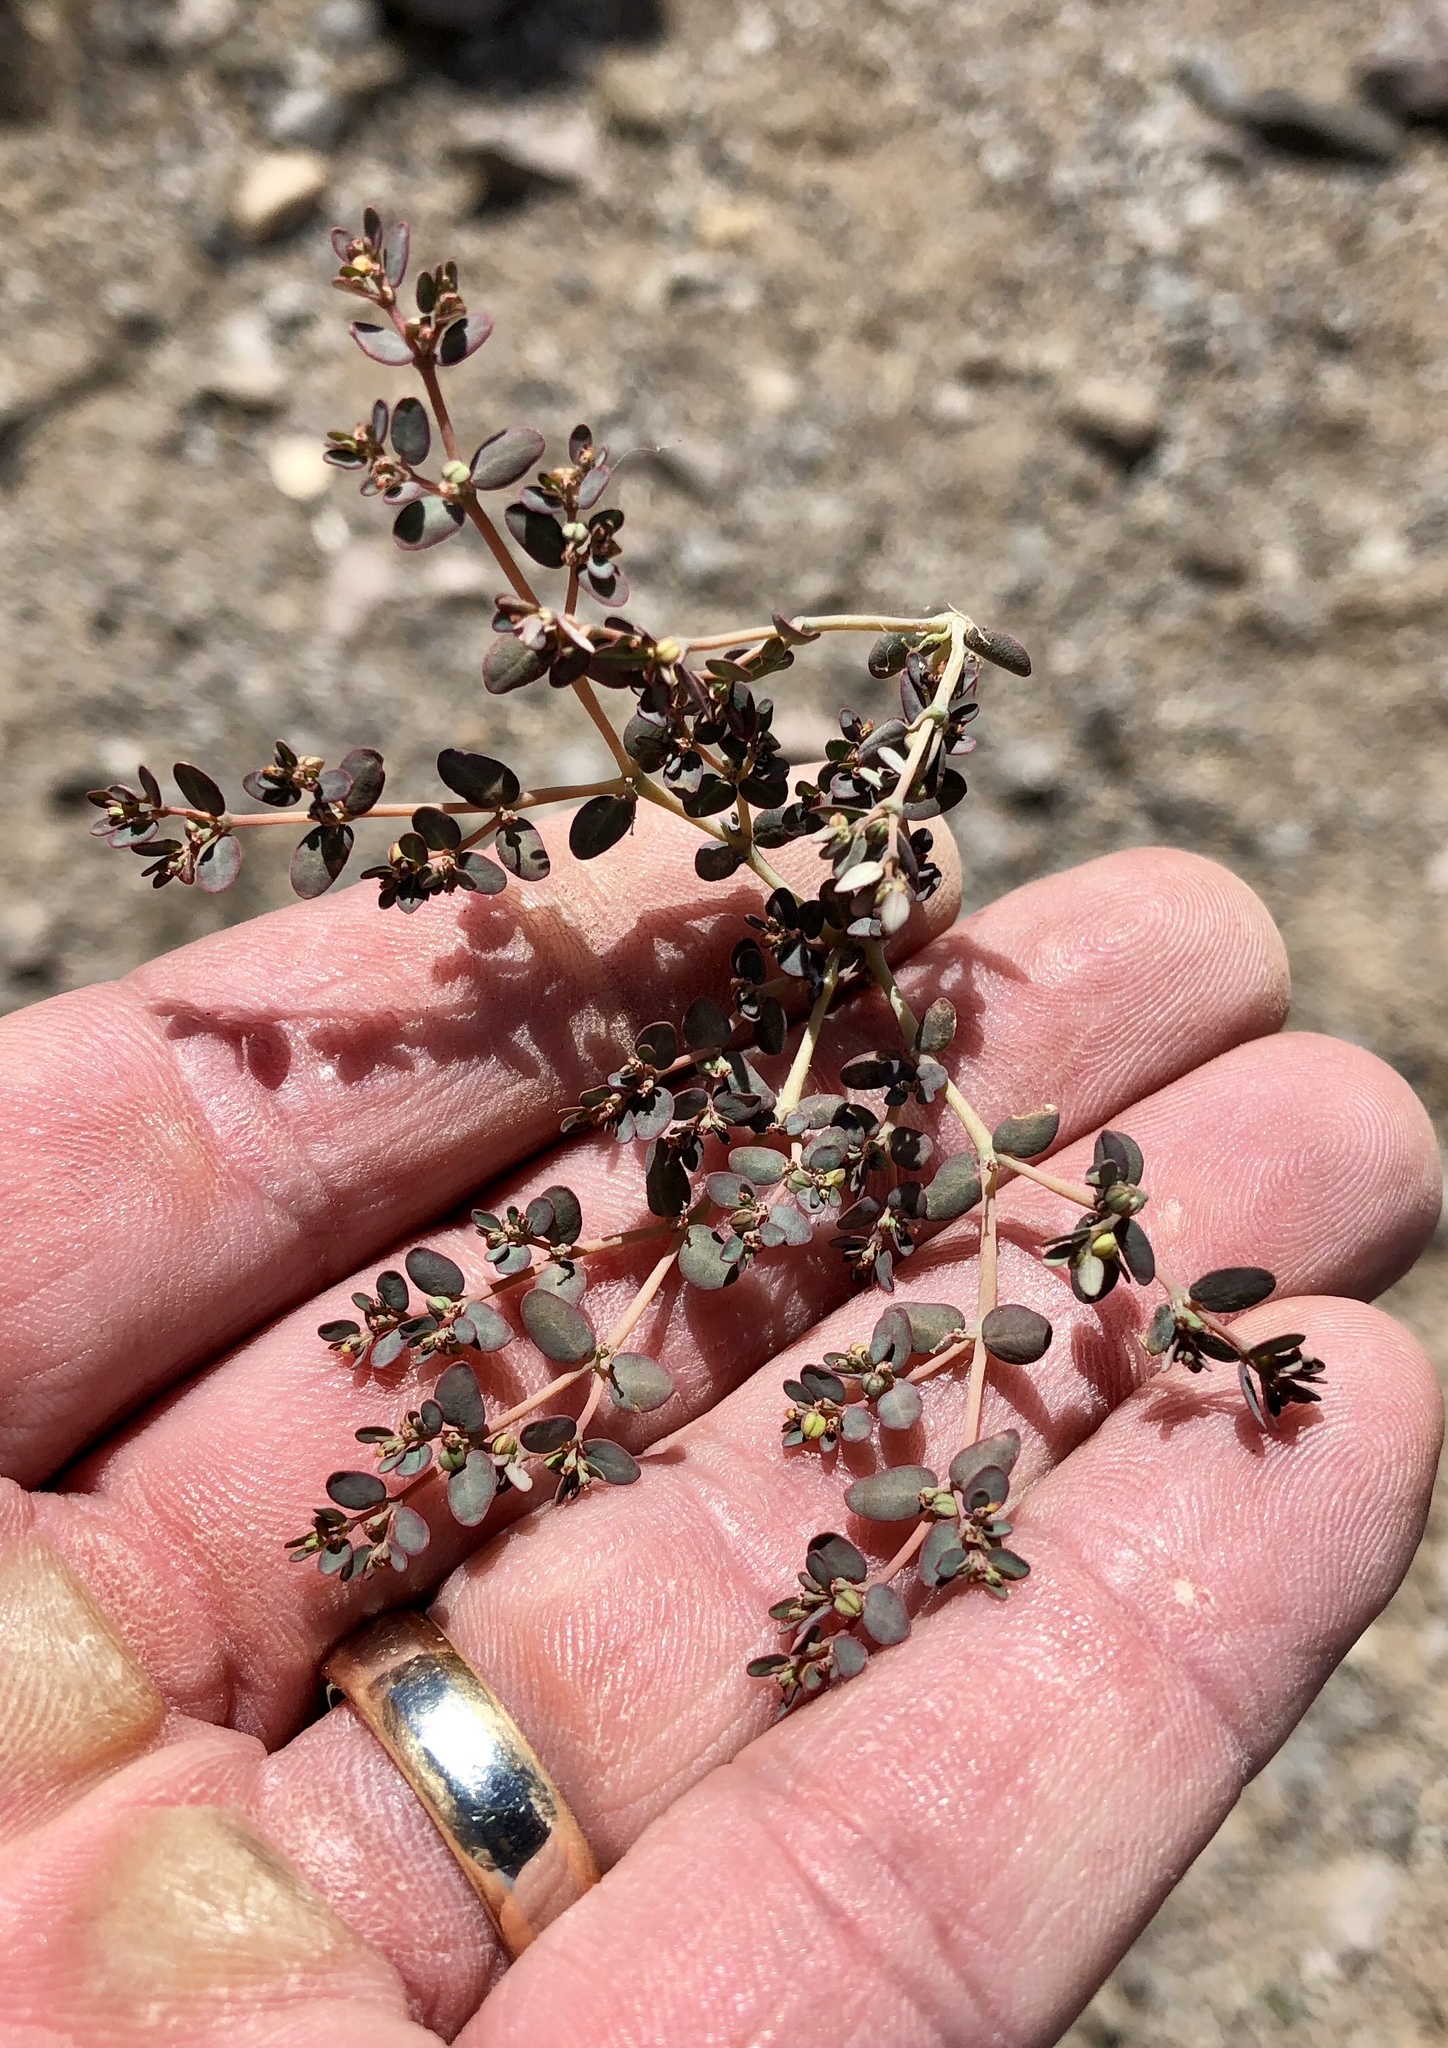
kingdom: Plantae
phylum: Tracheophyta
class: Magnoliopsida
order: Malpighiales
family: Euphorbiaceae
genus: Euphorbia
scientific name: Euphorbia micromera
